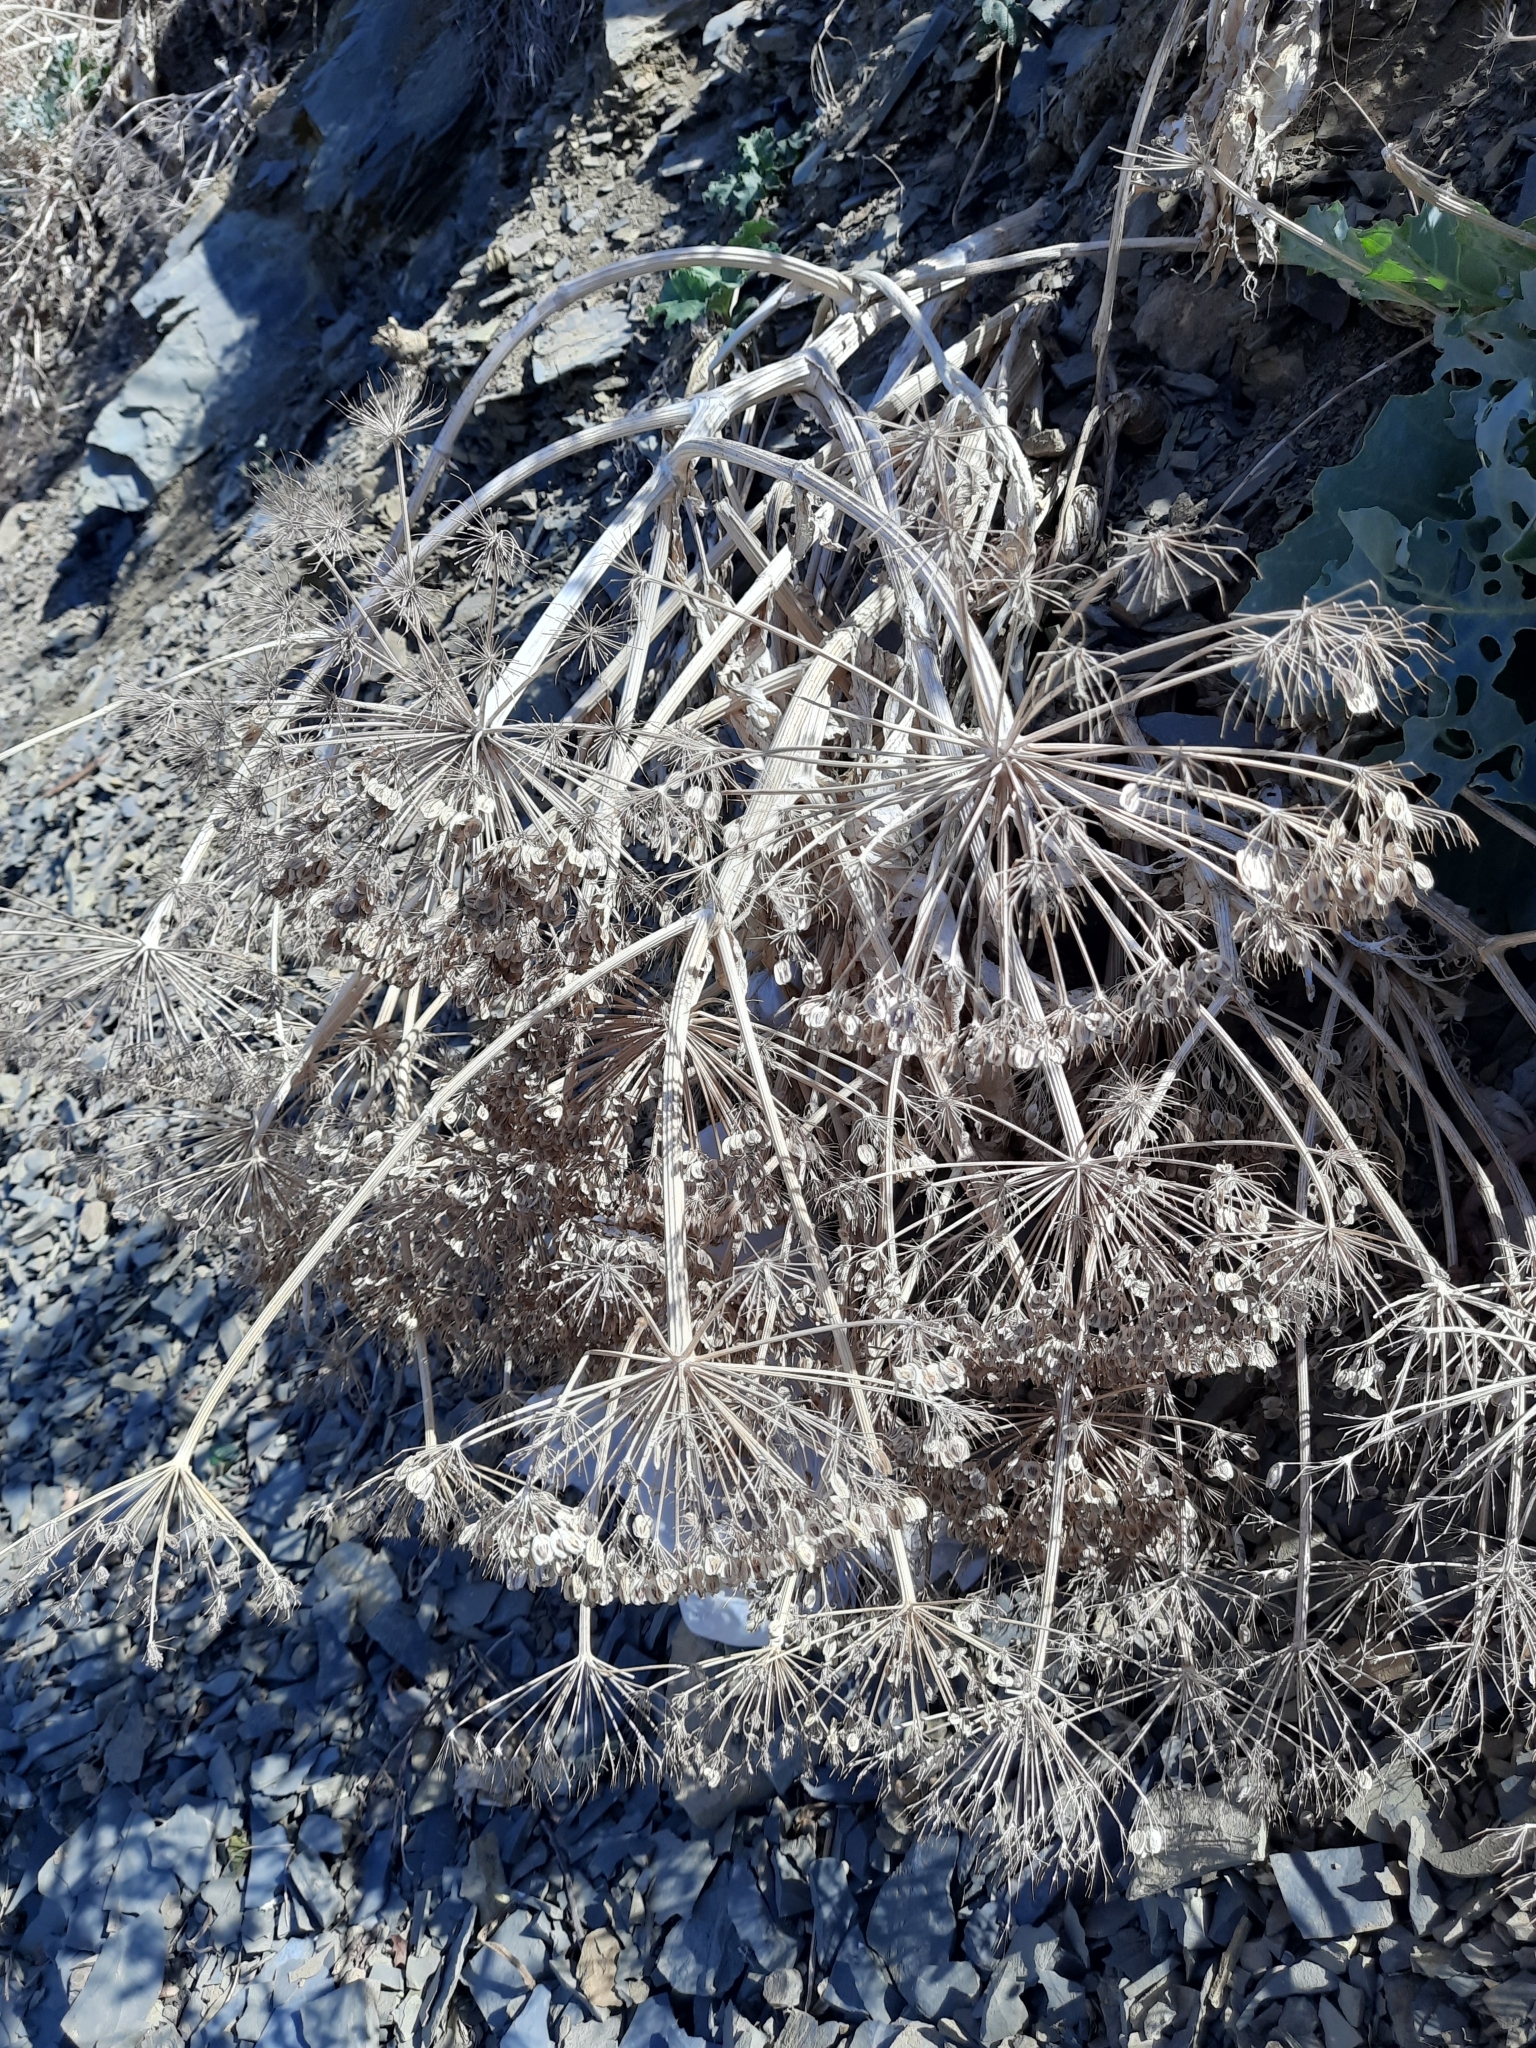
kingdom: Plantae
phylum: Tracheophyta
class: Magnoliopsida
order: Apiales
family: Apiaceae
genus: Heracleum
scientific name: Heracleum stevenii
